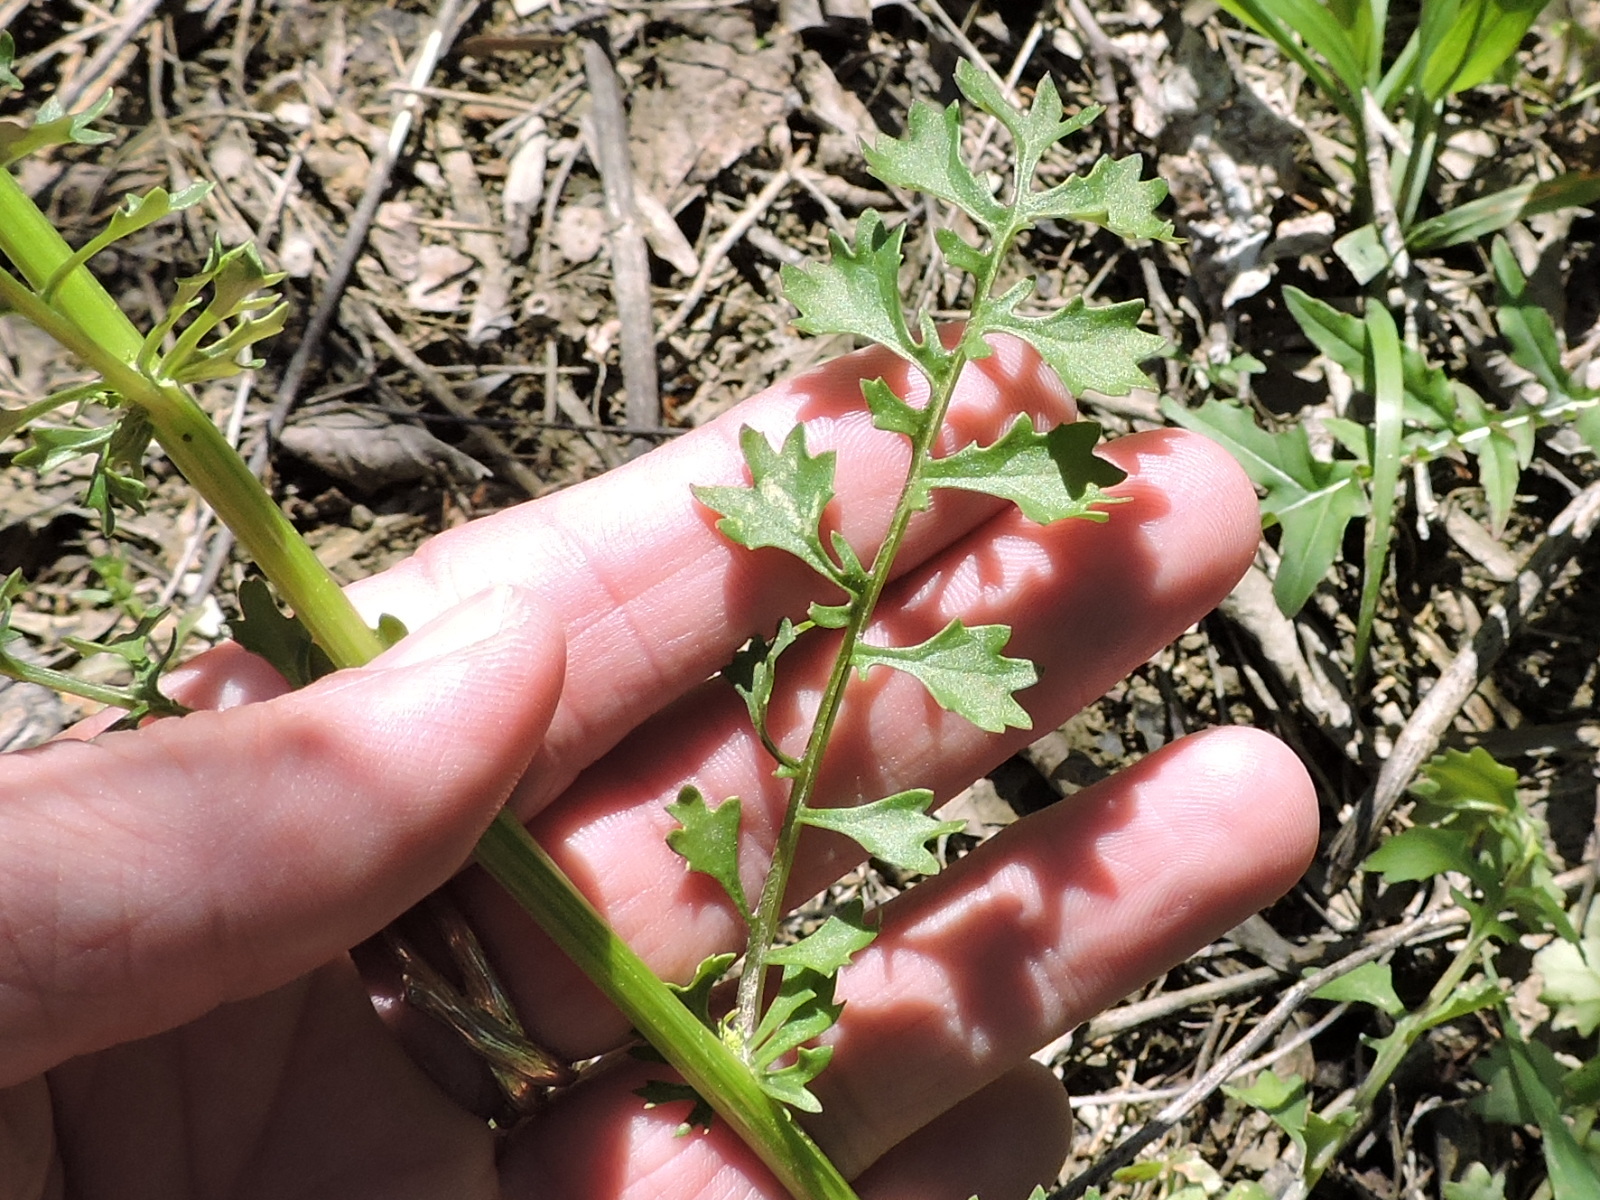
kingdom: Plantae
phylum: Tracheophyta
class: Magnoliopsida
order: Asterales
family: Asteraceae
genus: Packera
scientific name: Packera tampicana
